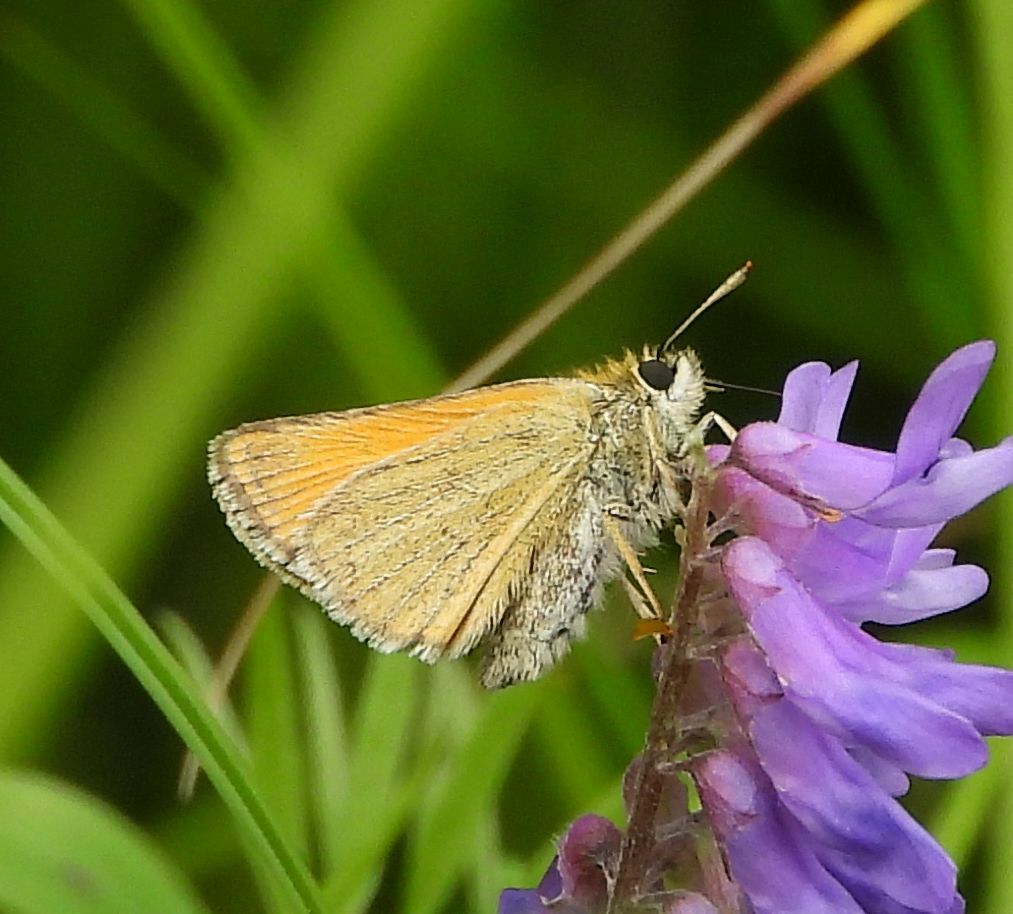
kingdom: Animalia
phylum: Arthropoda
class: Insecta
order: Lepidoptera
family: Hesperiidae
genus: Thymelicus
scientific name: Thymelicus lineola
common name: Essex skipper
